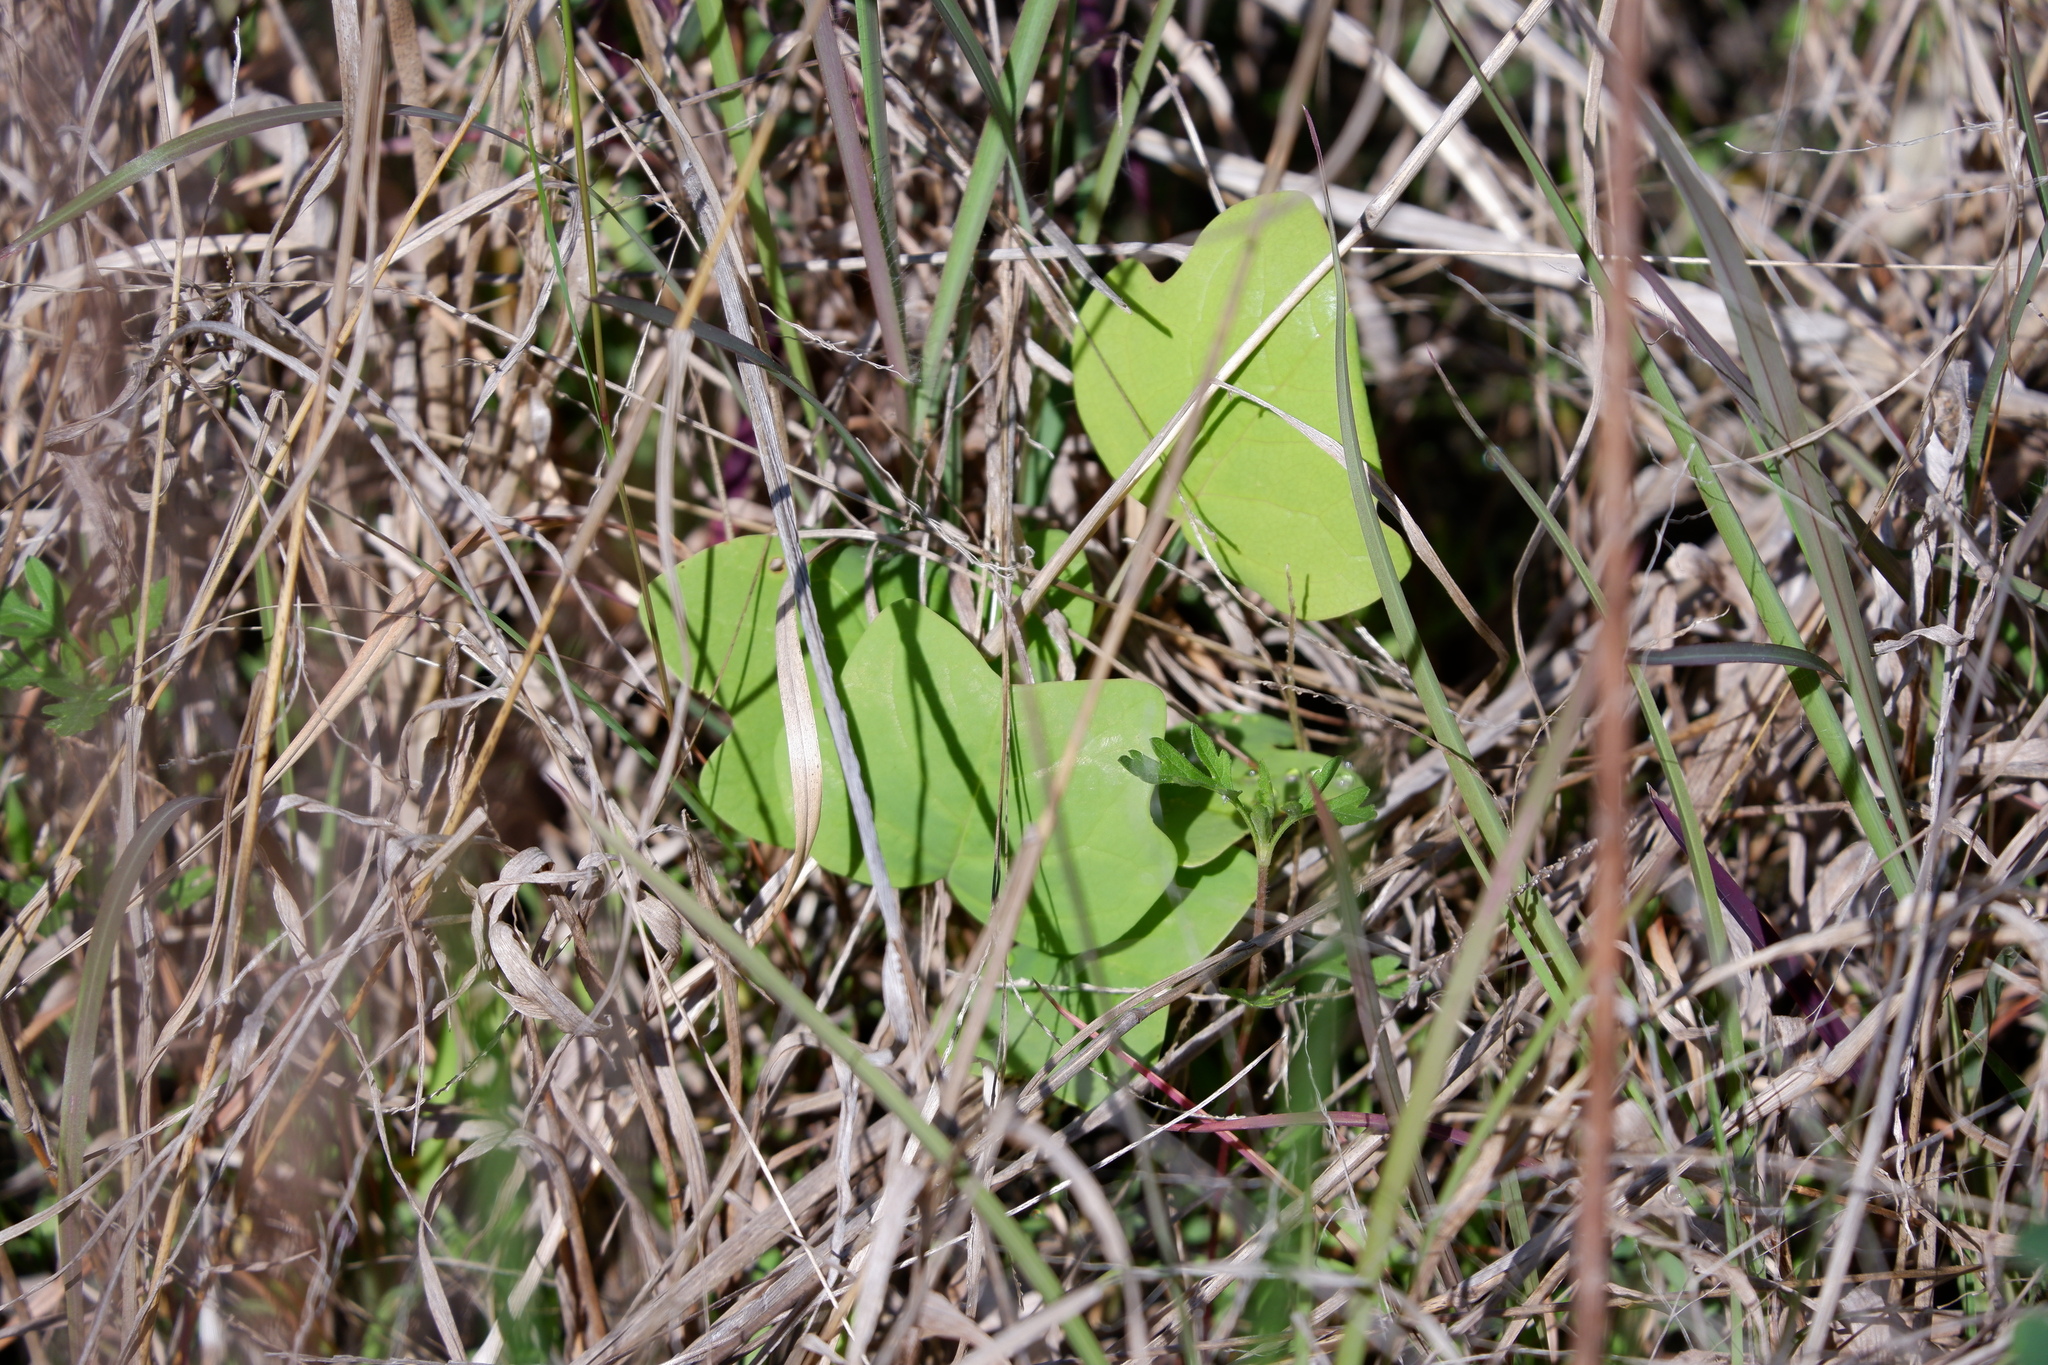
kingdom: Plantae
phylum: Tracheophyta
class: Magnoliopsida
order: Magnoliales
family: Magnoliaceae
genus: Liriodendron
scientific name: Liriodendron tulipifera
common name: Tulip tree
